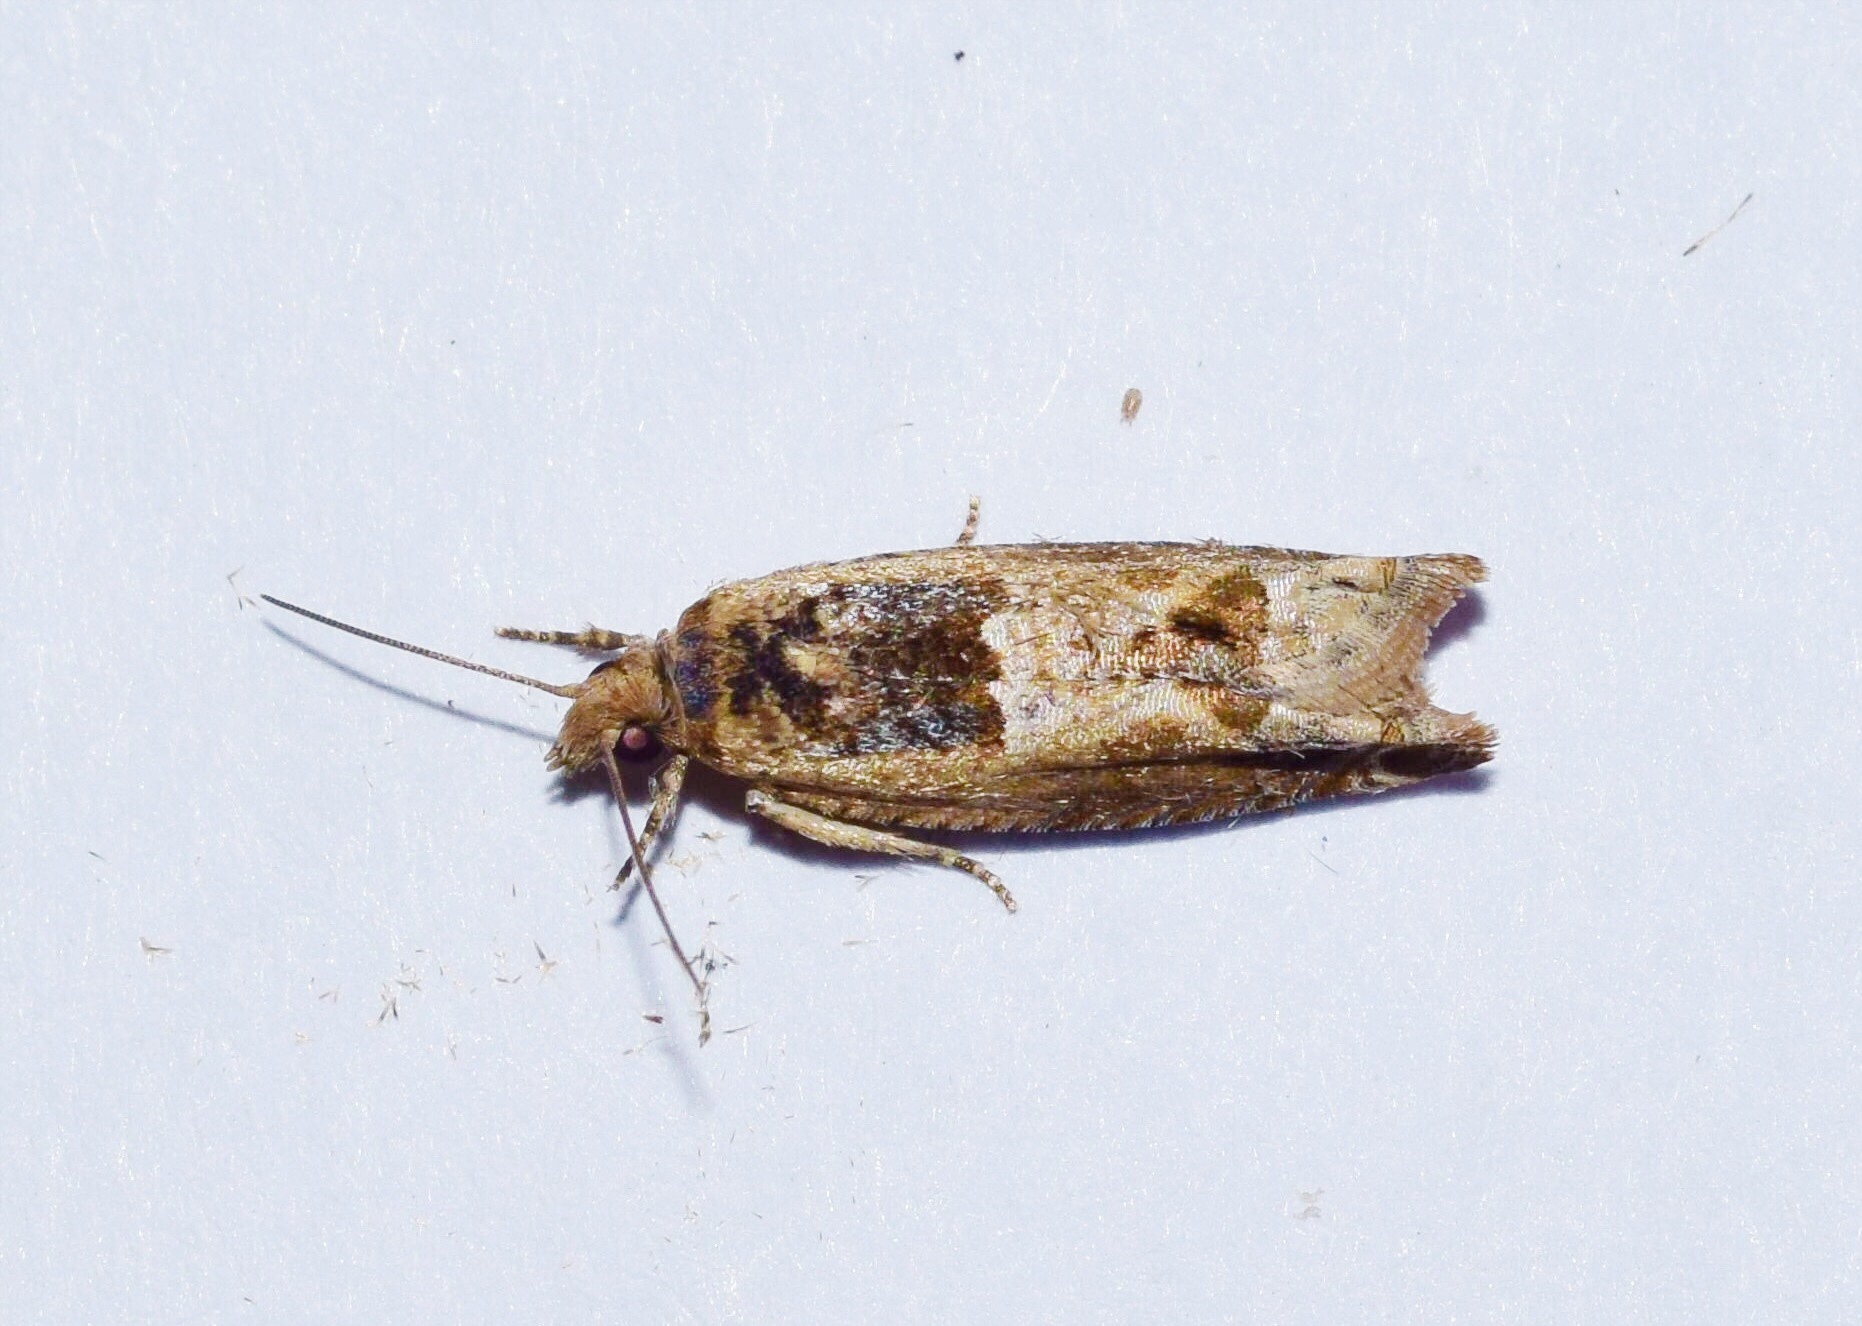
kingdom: Animalia
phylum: Arthropoda
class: Insecta
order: Lepidoptera
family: Tortricidae
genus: Crocidosema
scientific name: Crocidosema plebejana
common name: Southern bell
